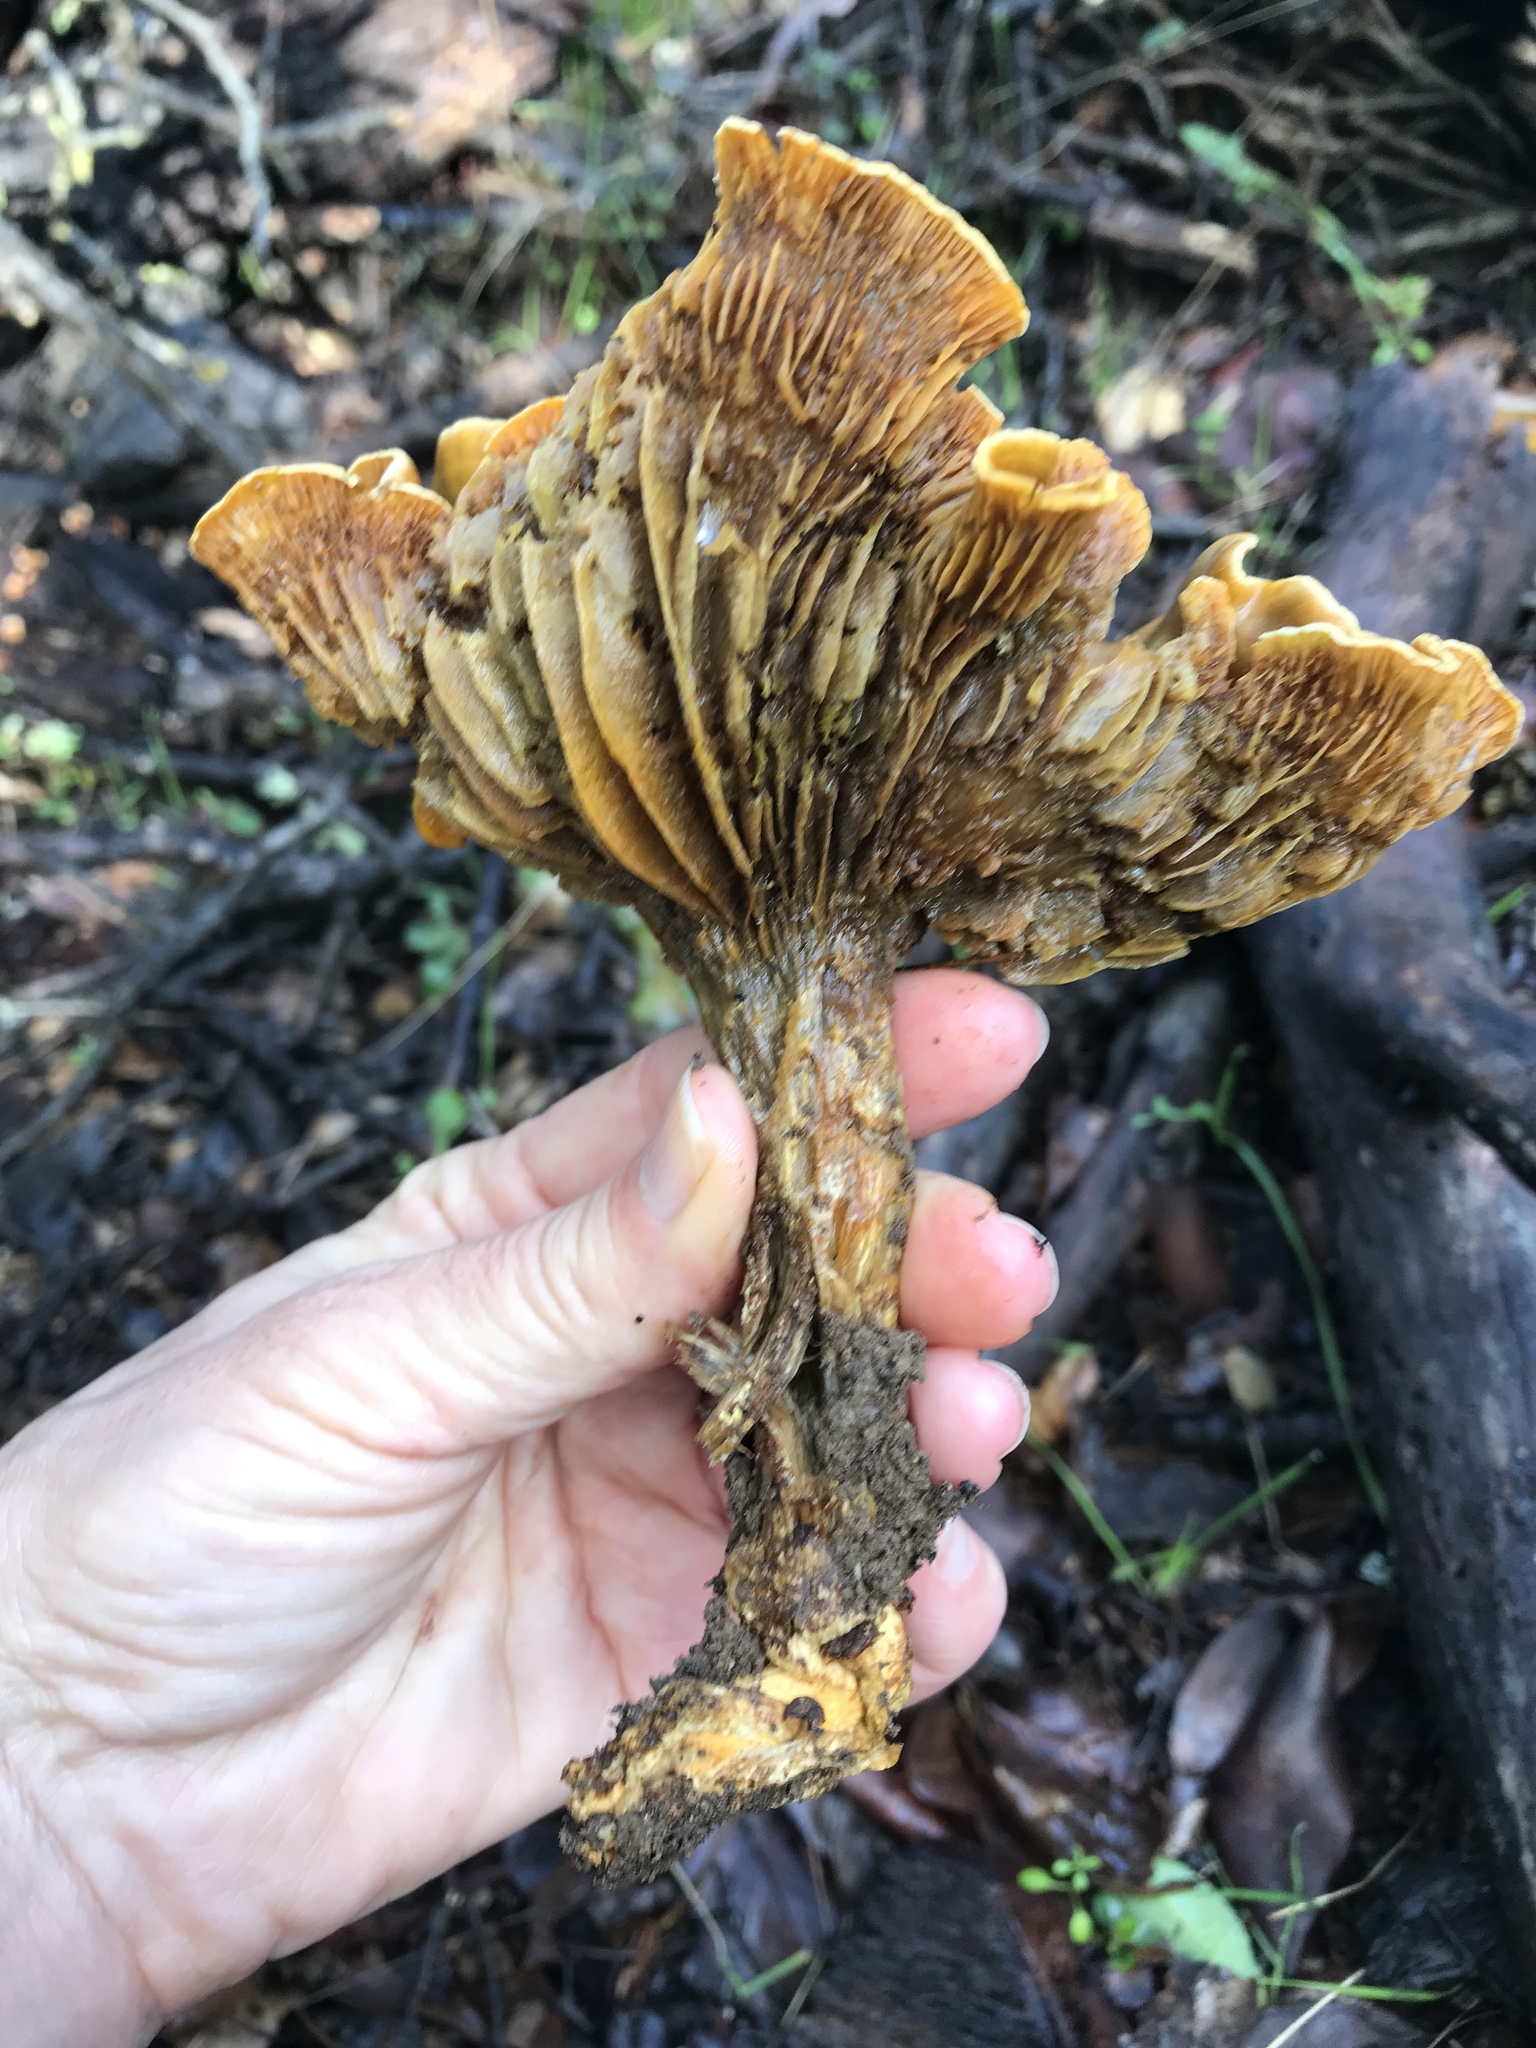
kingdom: Fungi
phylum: Basidiomycota
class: Agaricomycetes
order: Agaricales
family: Omphalotaceae
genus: Omphalotus
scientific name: Omphalotus olivascens
